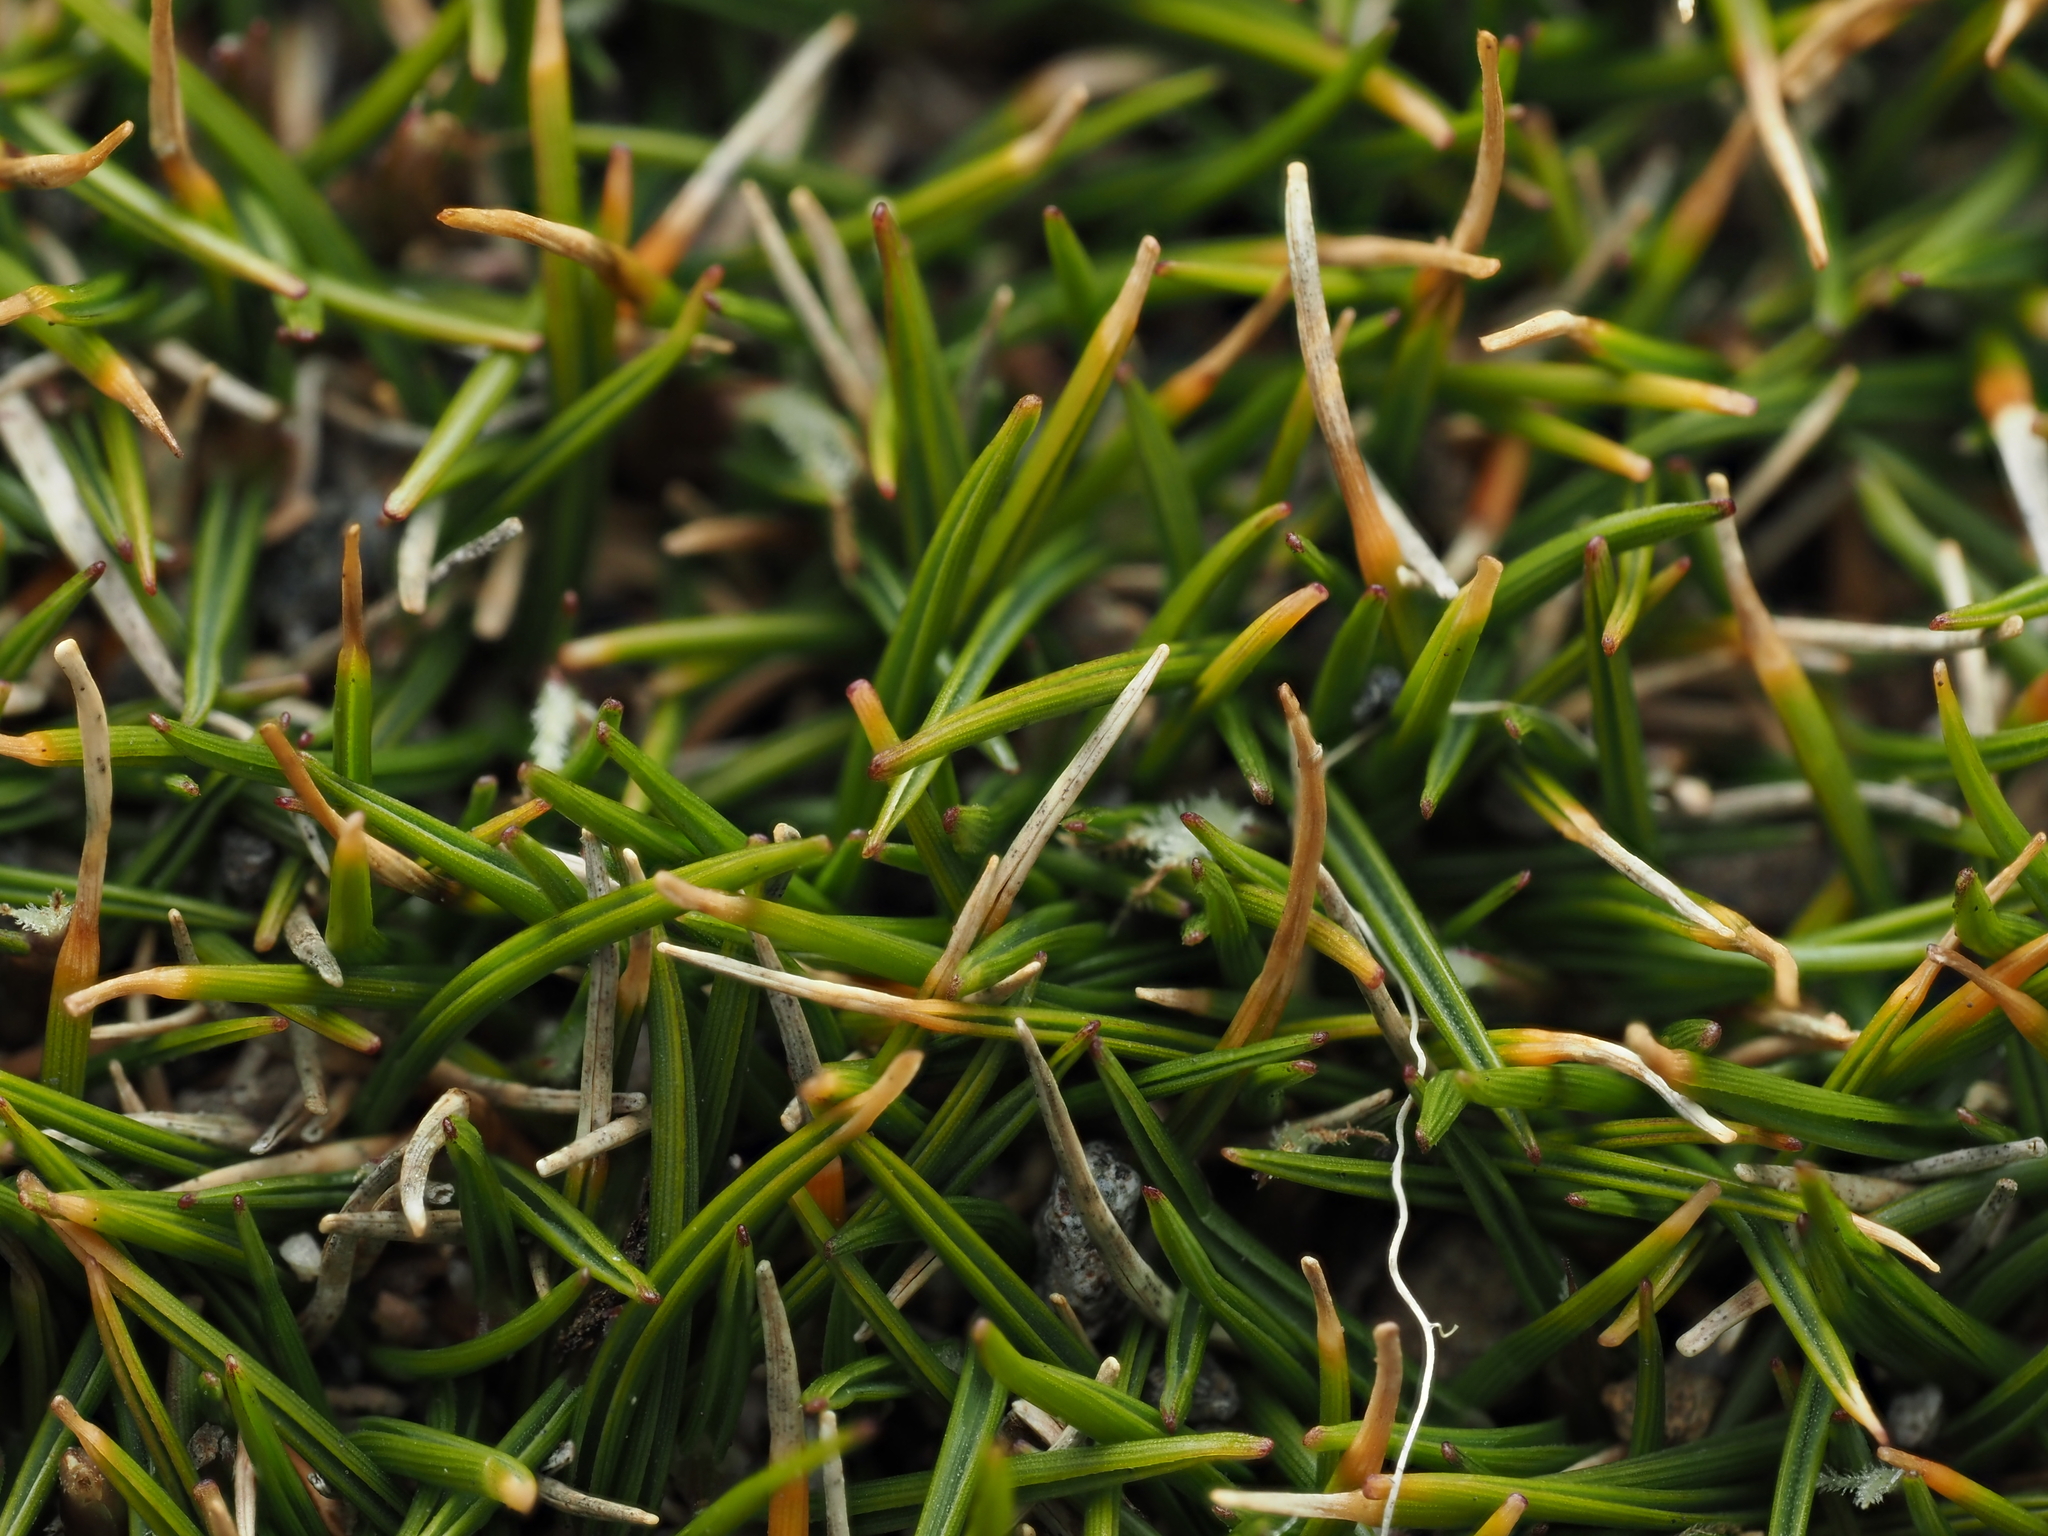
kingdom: Plantae
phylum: Tracheophyta
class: Liliopsida
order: Poales
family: Poaceae
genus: Zoysia
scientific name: Zoysia minima
